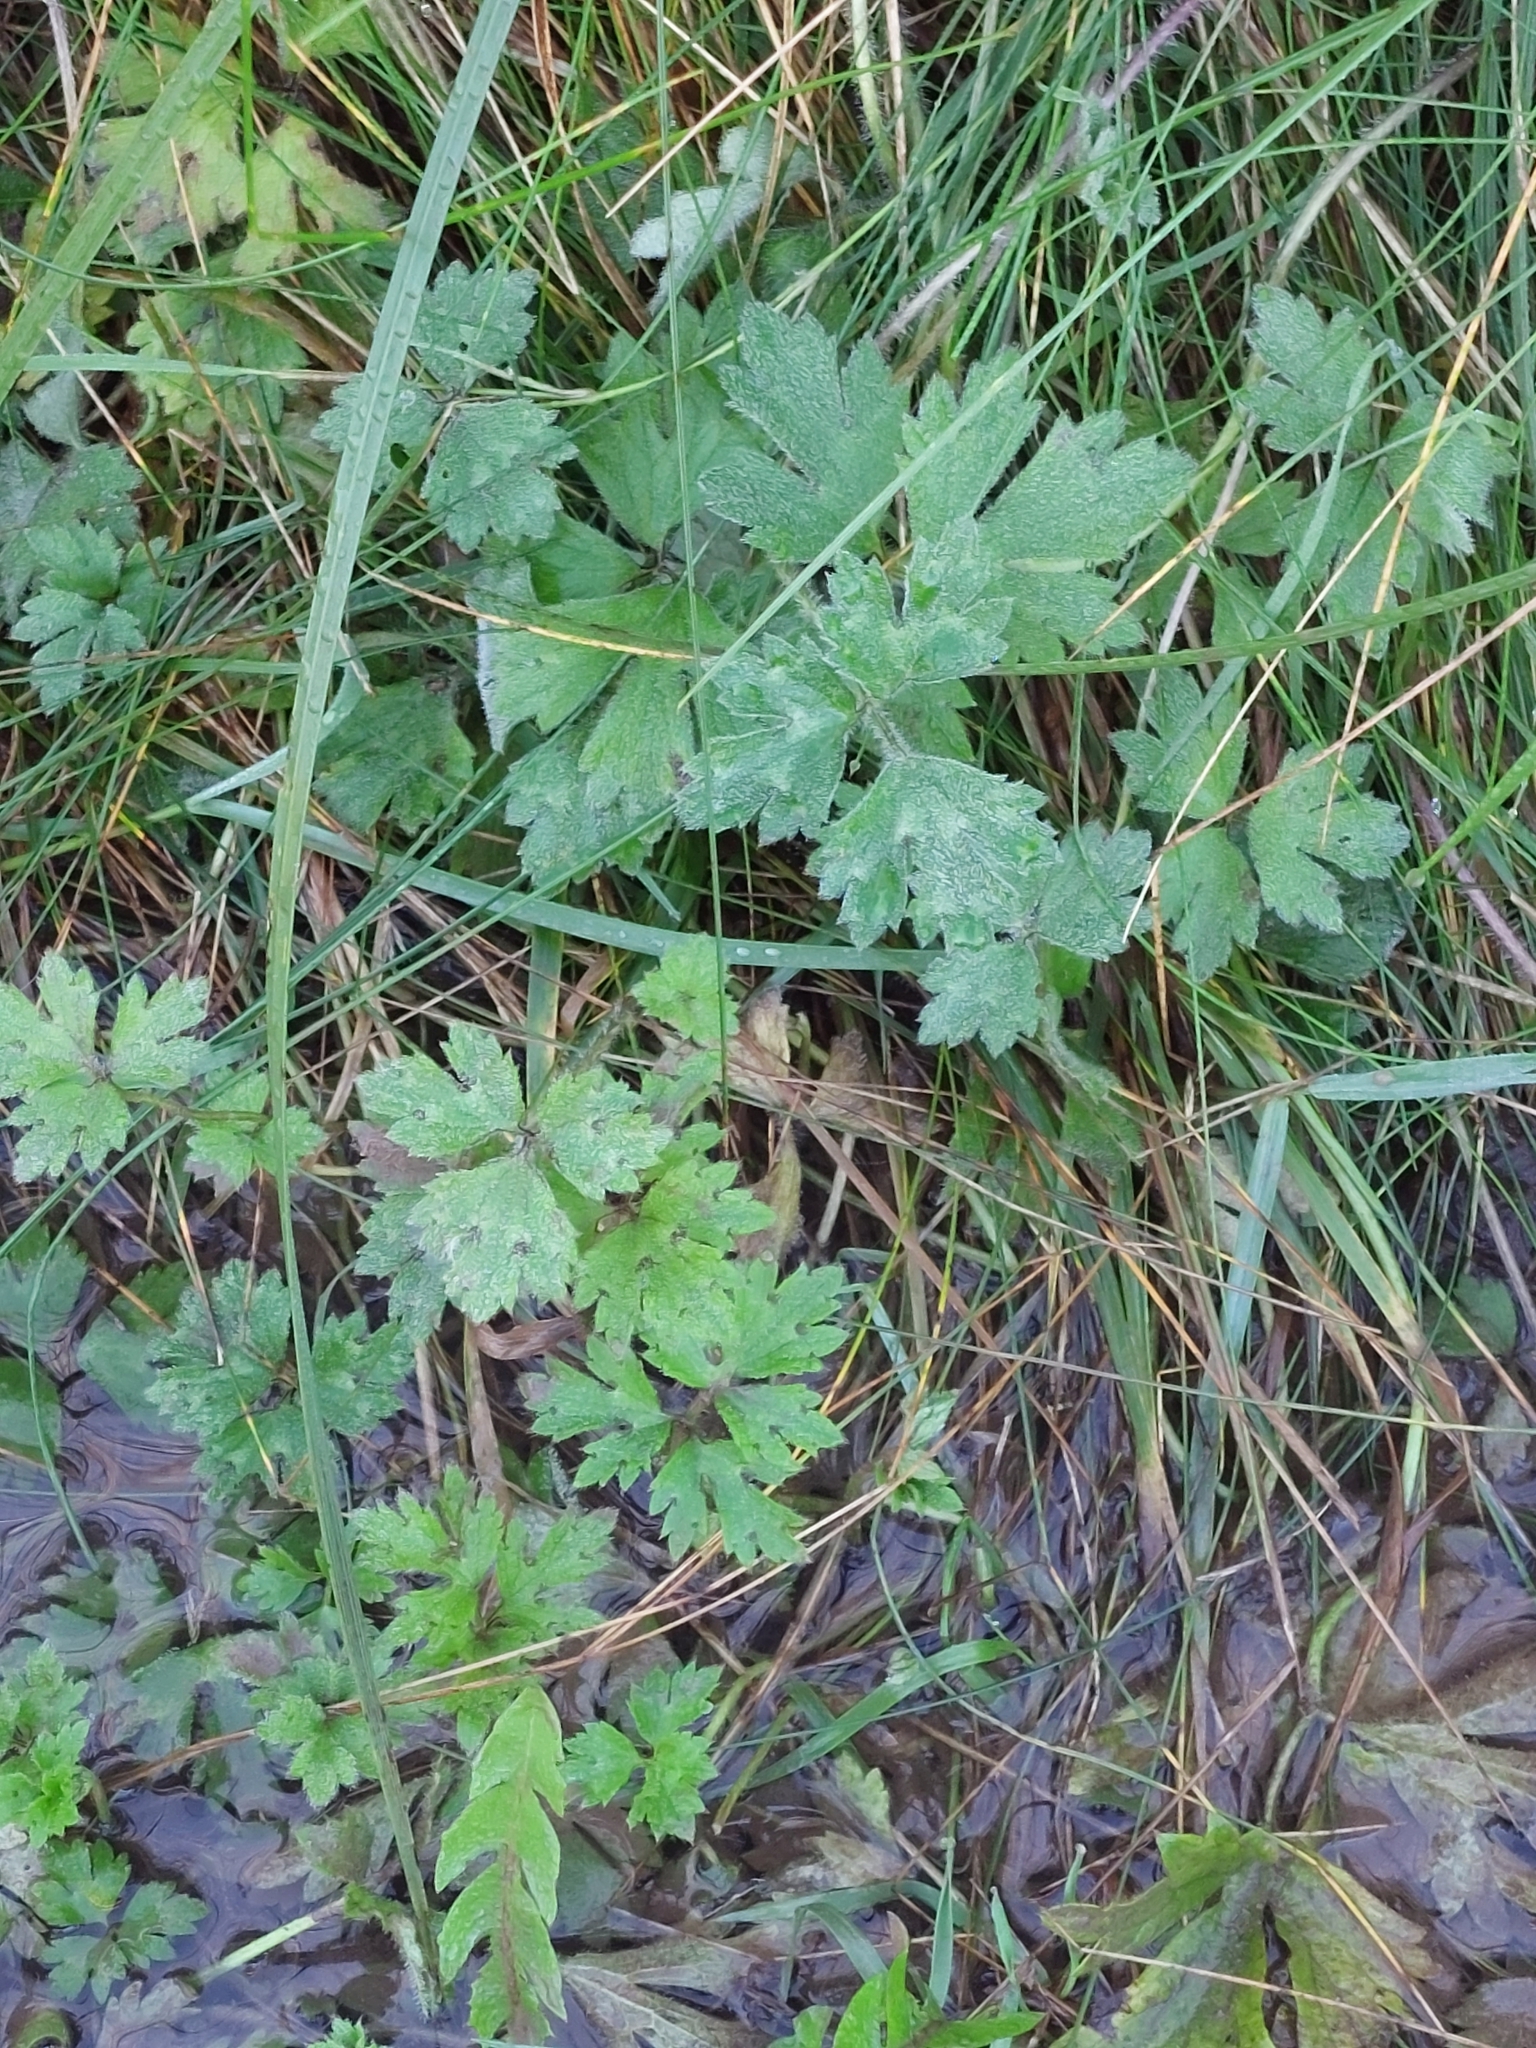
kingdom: Plantae
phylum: Tracheophyta
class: Magnoliopsida
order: Ranunculales
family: Ranunculaceae
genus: Ranunculus
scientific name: Ranunculus repens
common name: Creeping buttercup
